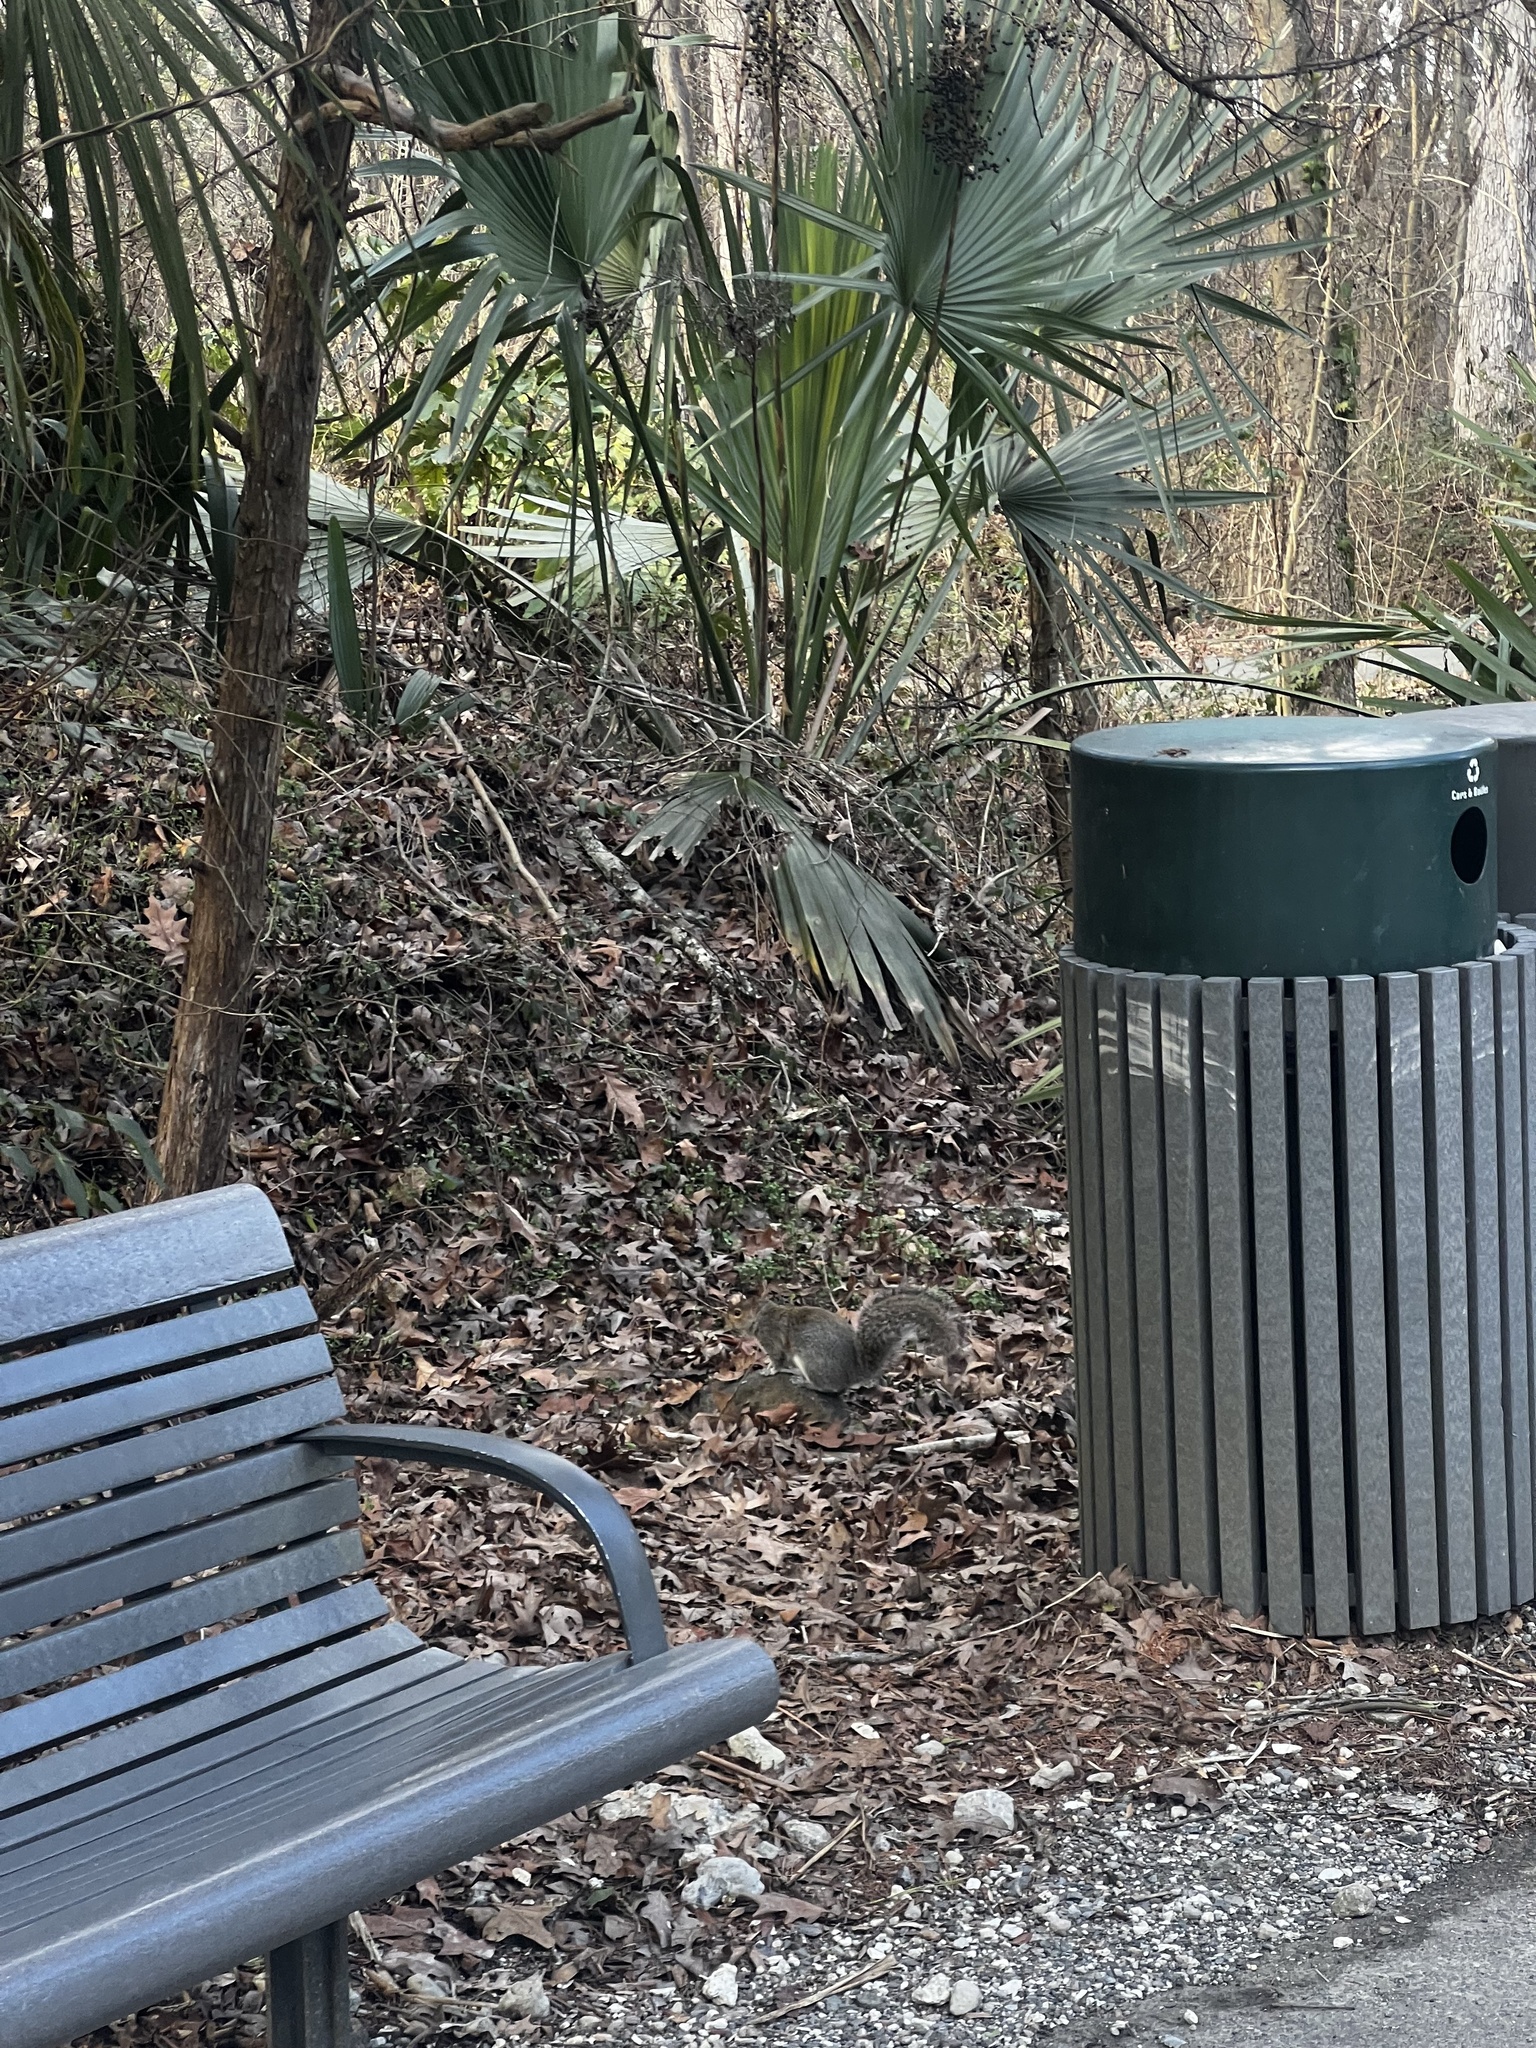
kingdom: Animalia
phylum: Chordata
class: Mammalia
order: Rodentia
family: Sciuridae
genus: Sciurus
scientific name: Sciurus carolinensis
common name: Eastern gray squirrel
